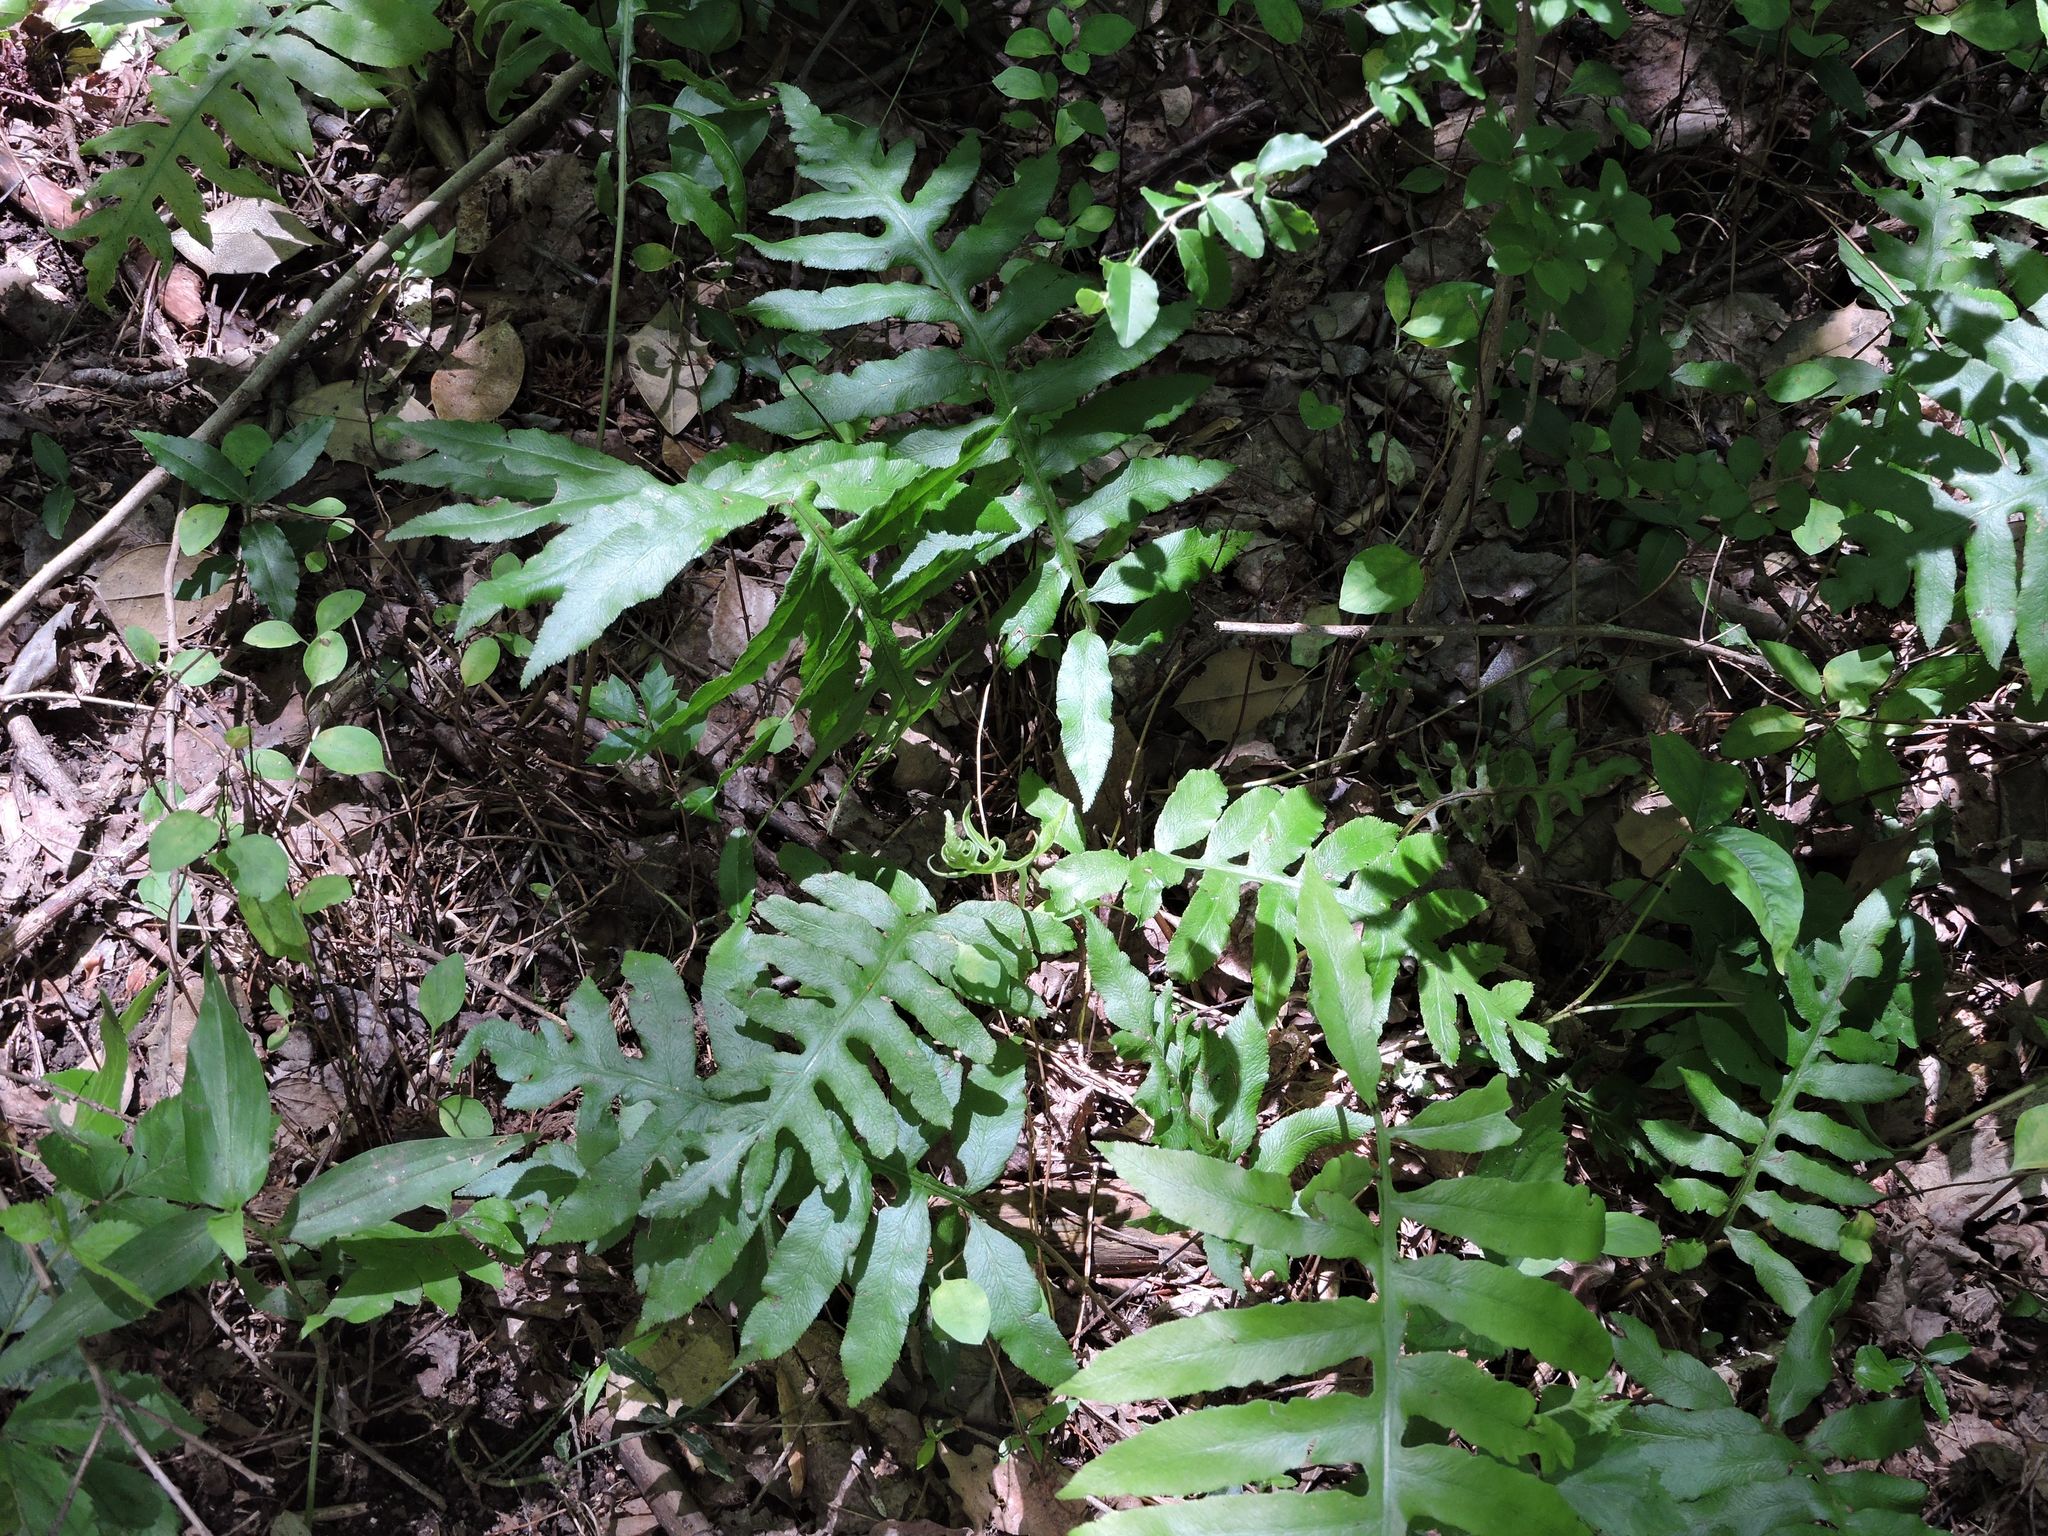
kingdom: Plantae
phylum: Tracheophyta
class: Polypodiopsida
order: Polypodiales
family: Blechnaceae
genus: Lorinseria
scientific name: Lorinseria areolata
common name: Dwarf chain fern
